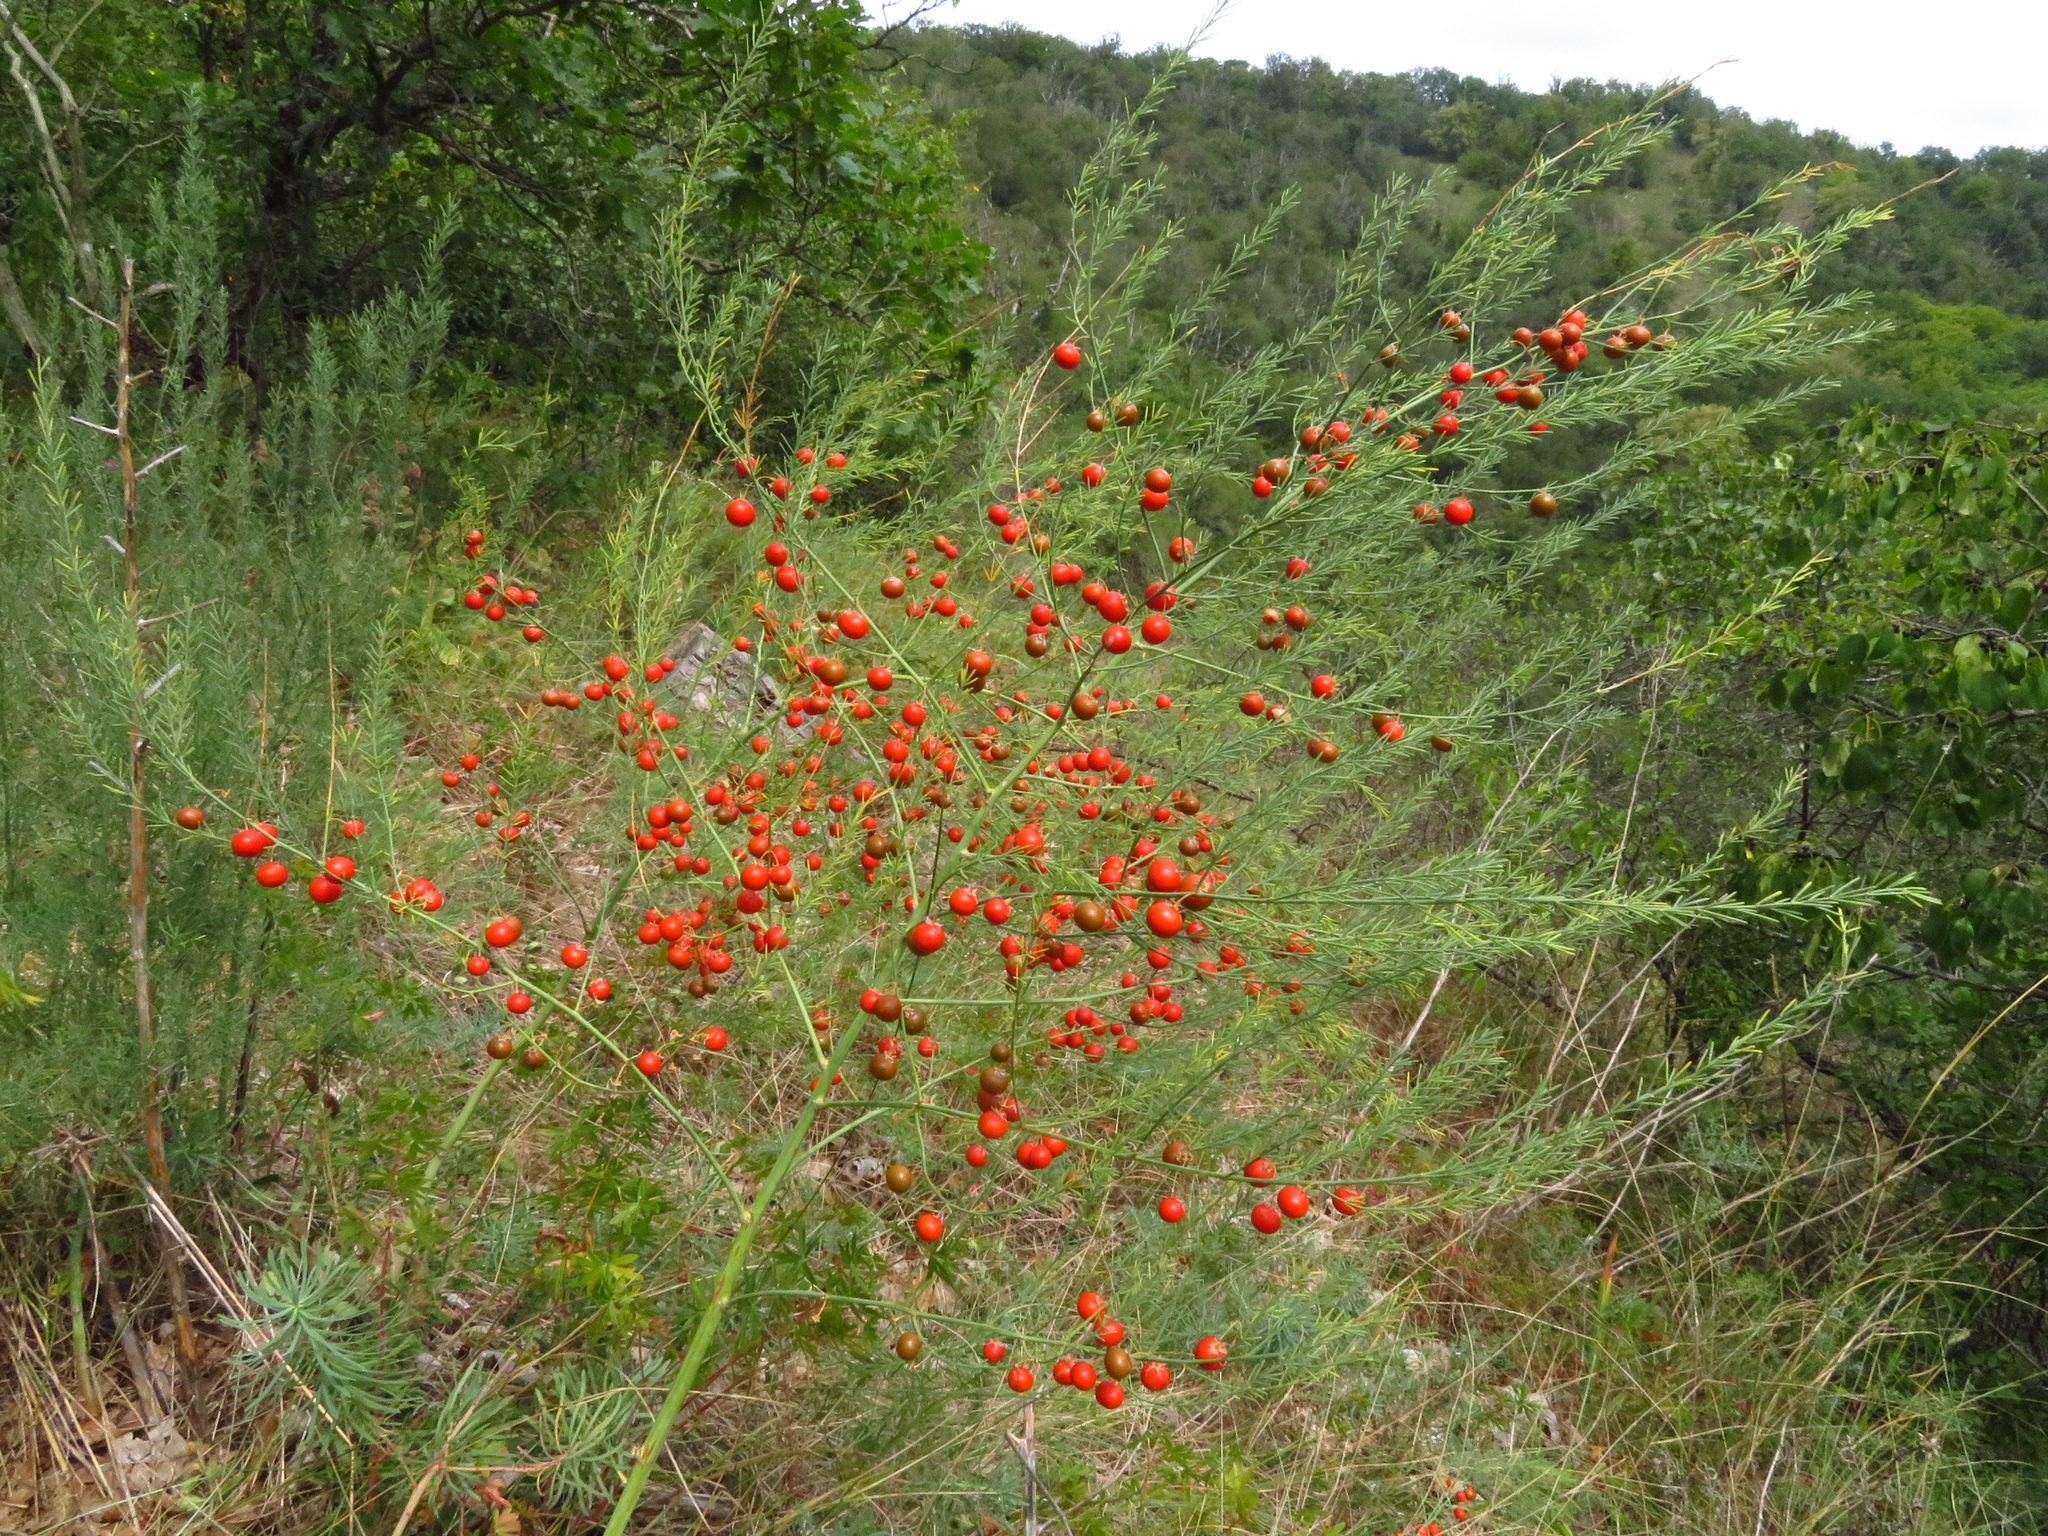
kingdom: Plantae
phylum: Tracheophyta
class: Liliopsida
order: Asparagales
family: Asparagaceae
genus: Asparagus
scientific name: Asparagus officinalis
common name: Garden asparagus
